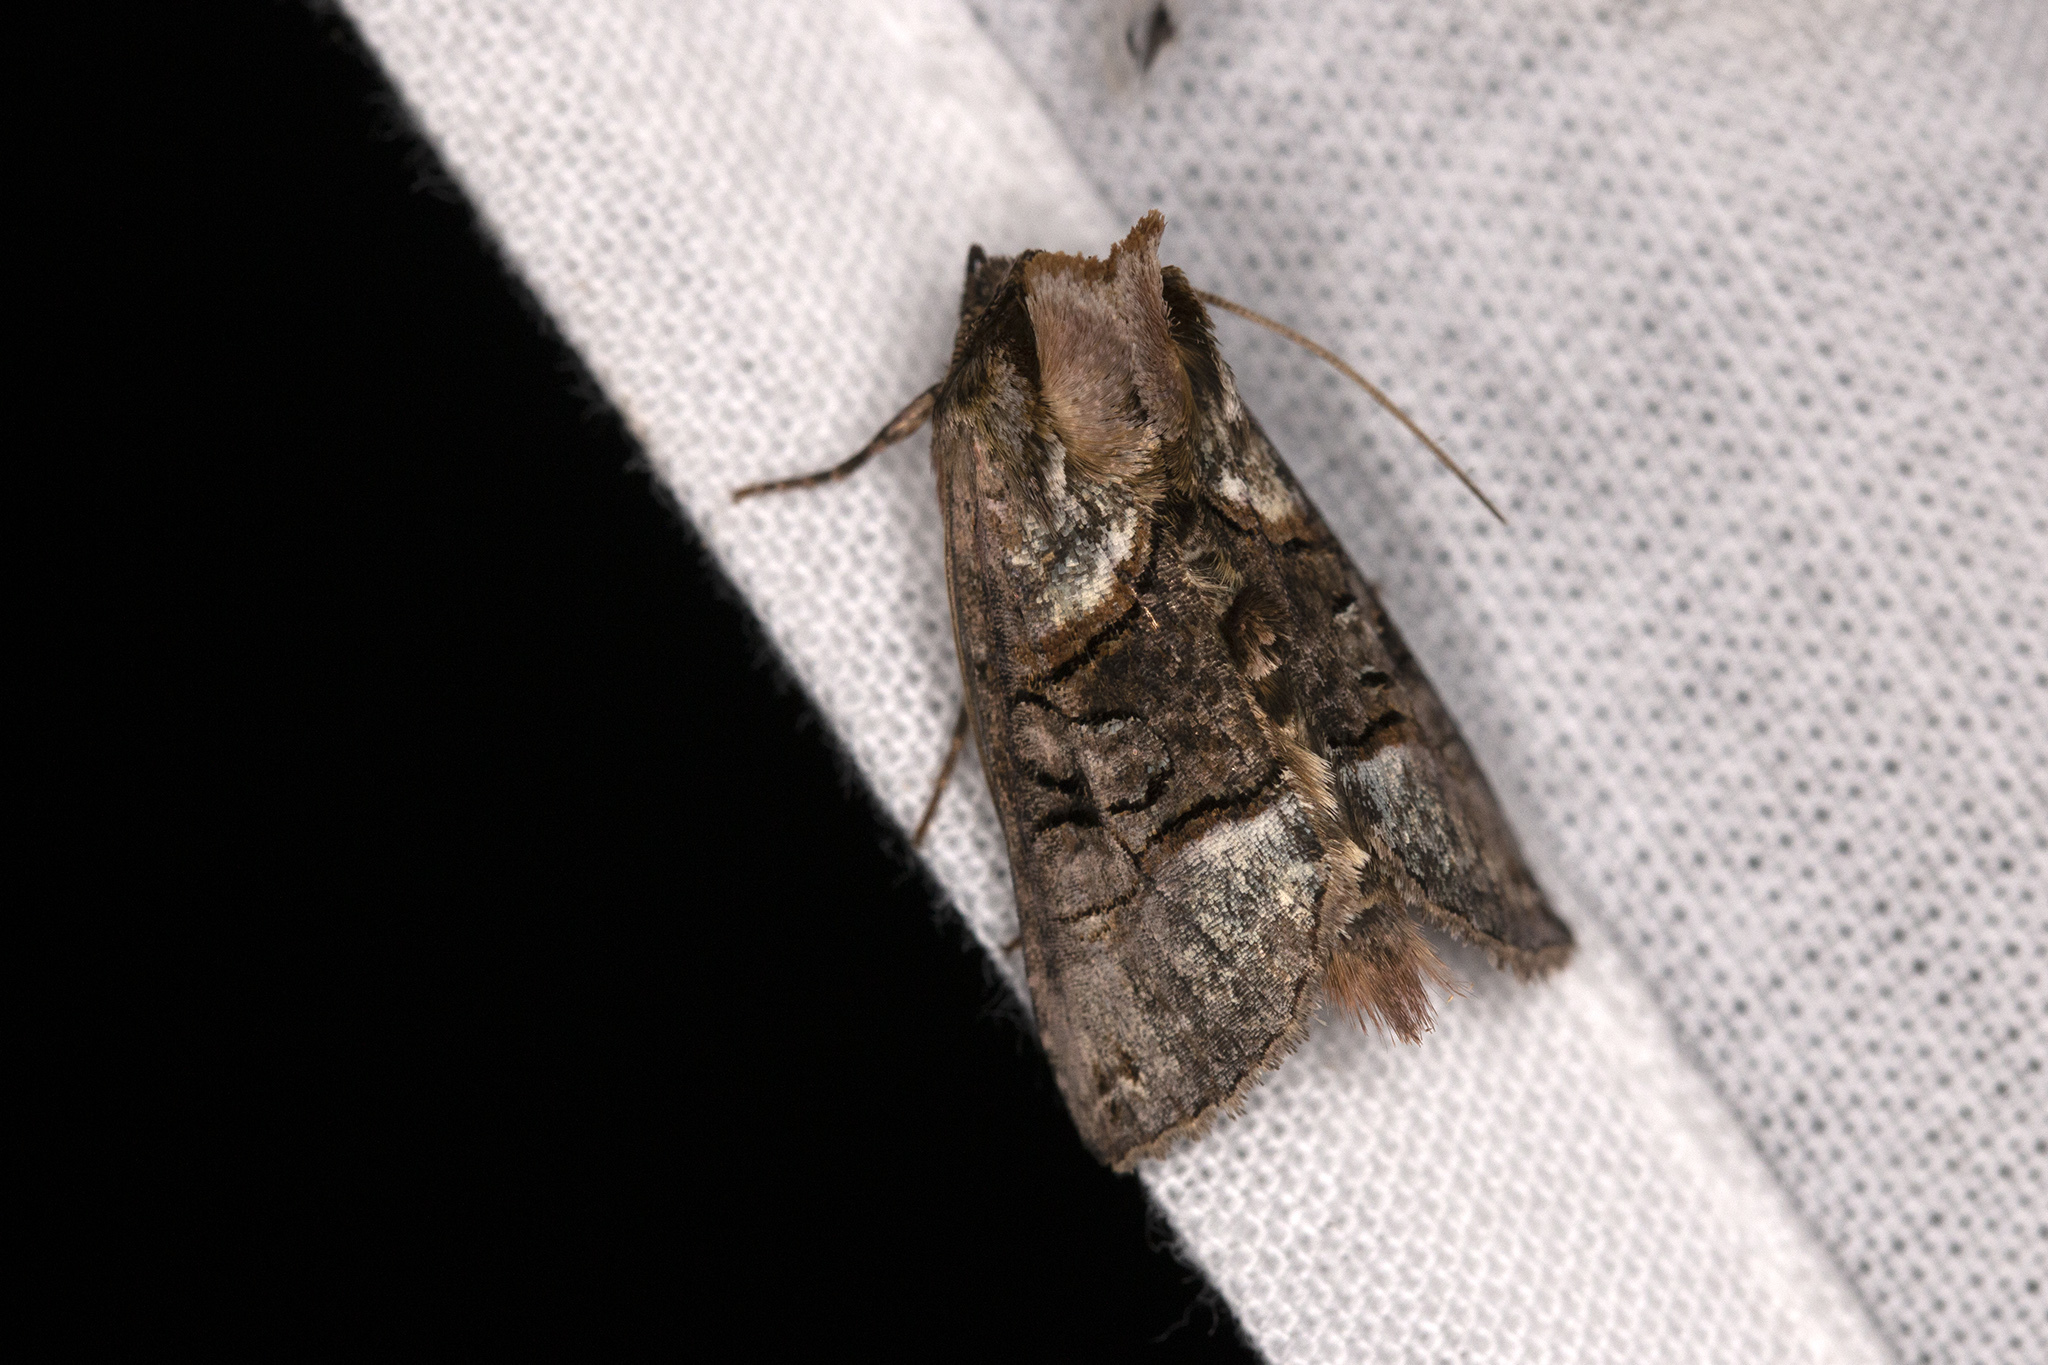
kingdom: Animalia
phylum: Arthropoda
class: Insecta
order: Lepidoptera
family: Noctuidae
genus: Abrostola
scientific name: Abrostola tripartita
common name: Spectacle
